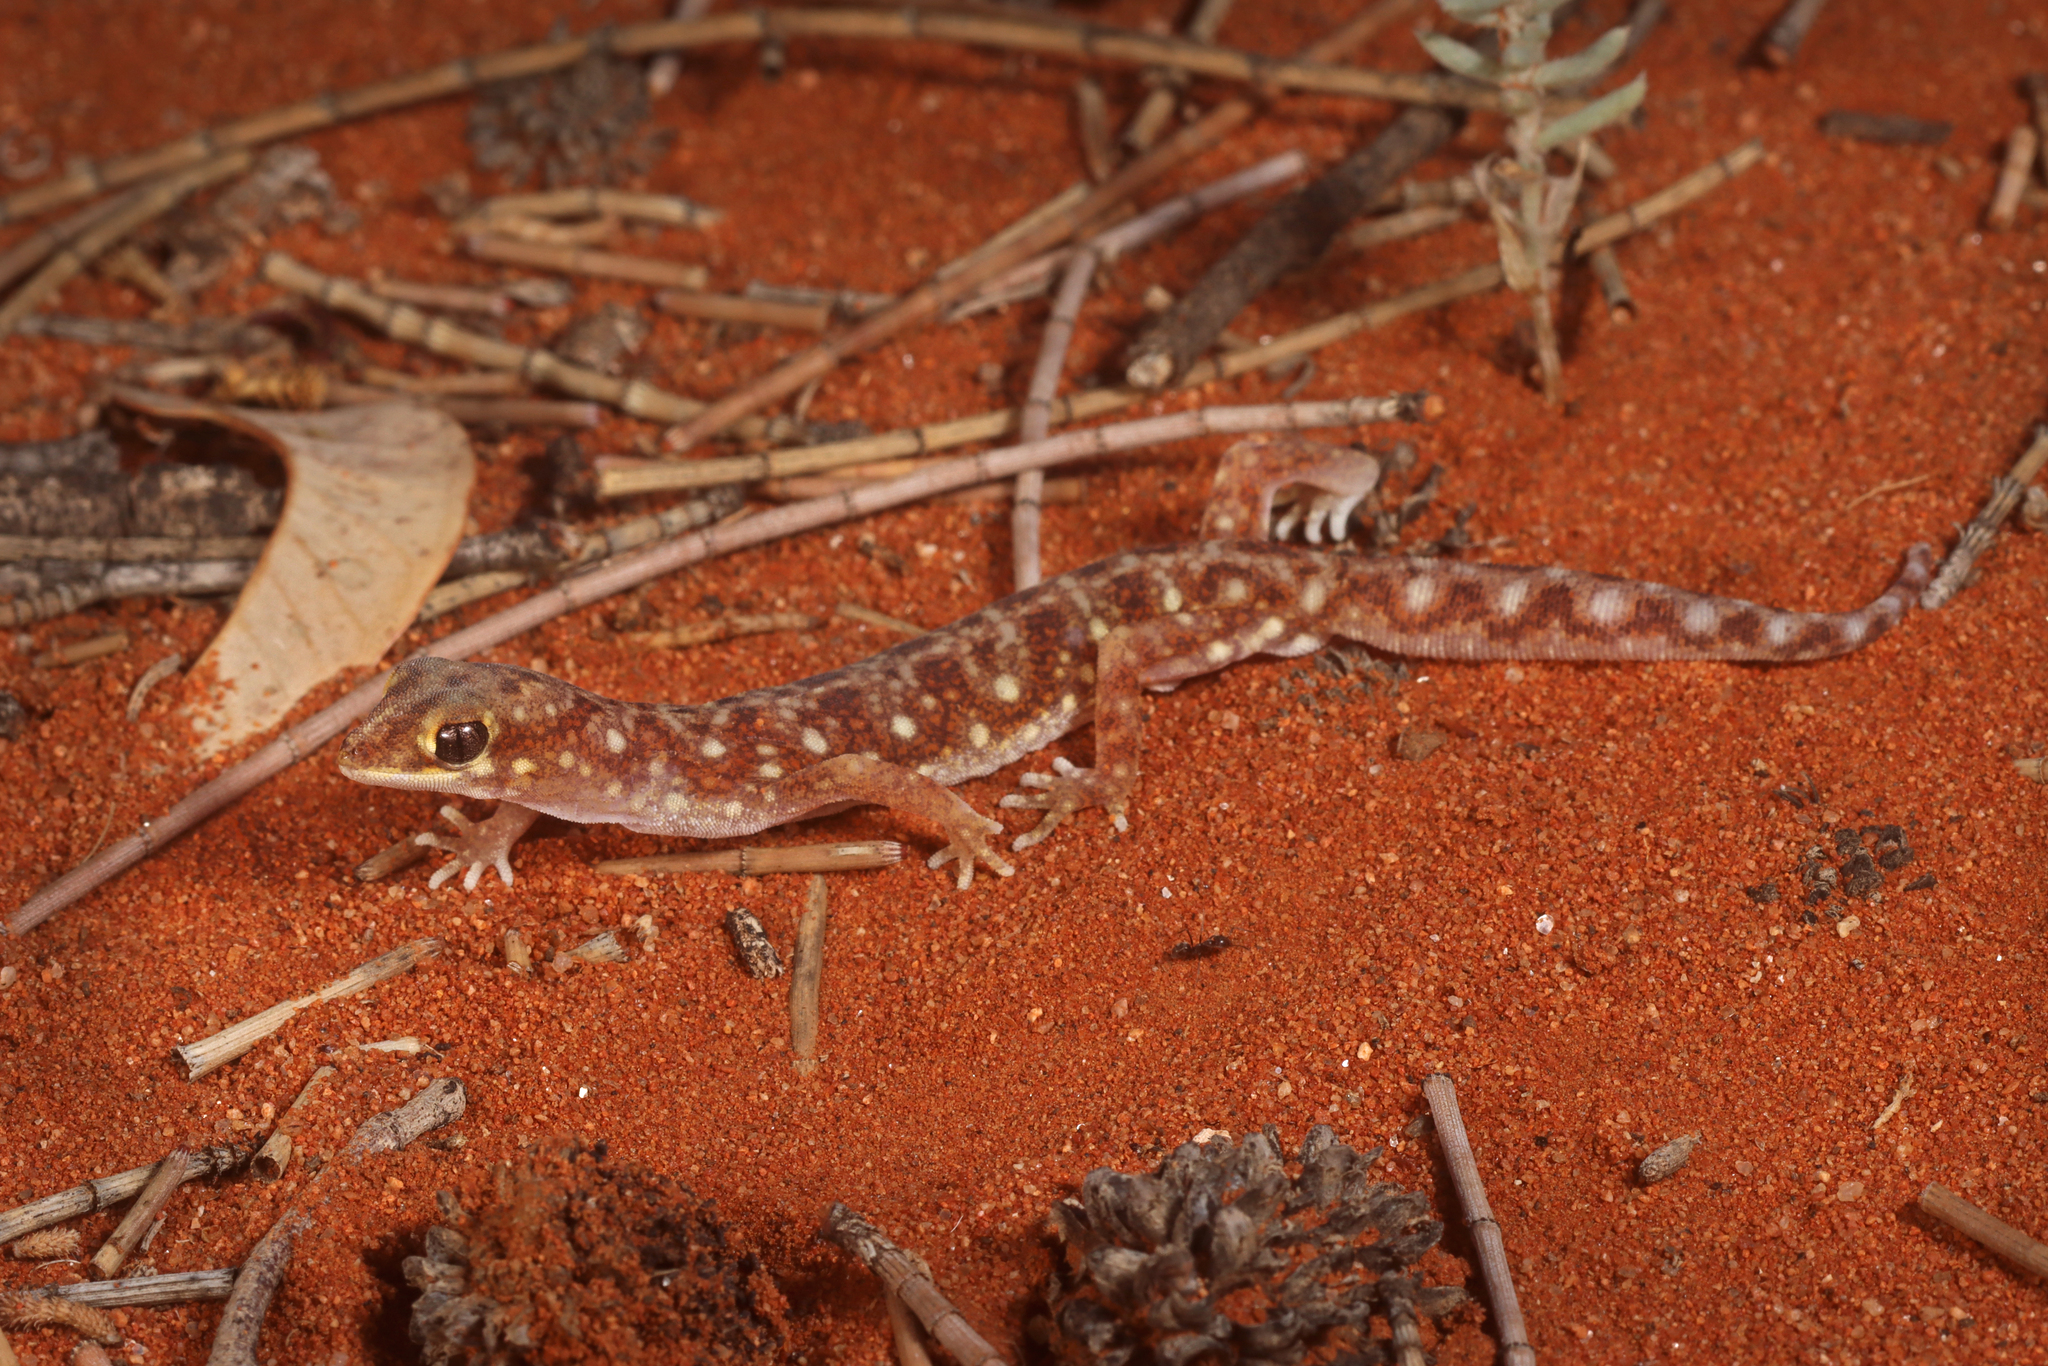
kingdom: Animalia
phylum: Chordata
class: Squamata
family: Diplodactylidae
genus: Rhynchoedura
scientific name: Rhynchoedura eyrensis
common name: Eyre basin beaked gecko
